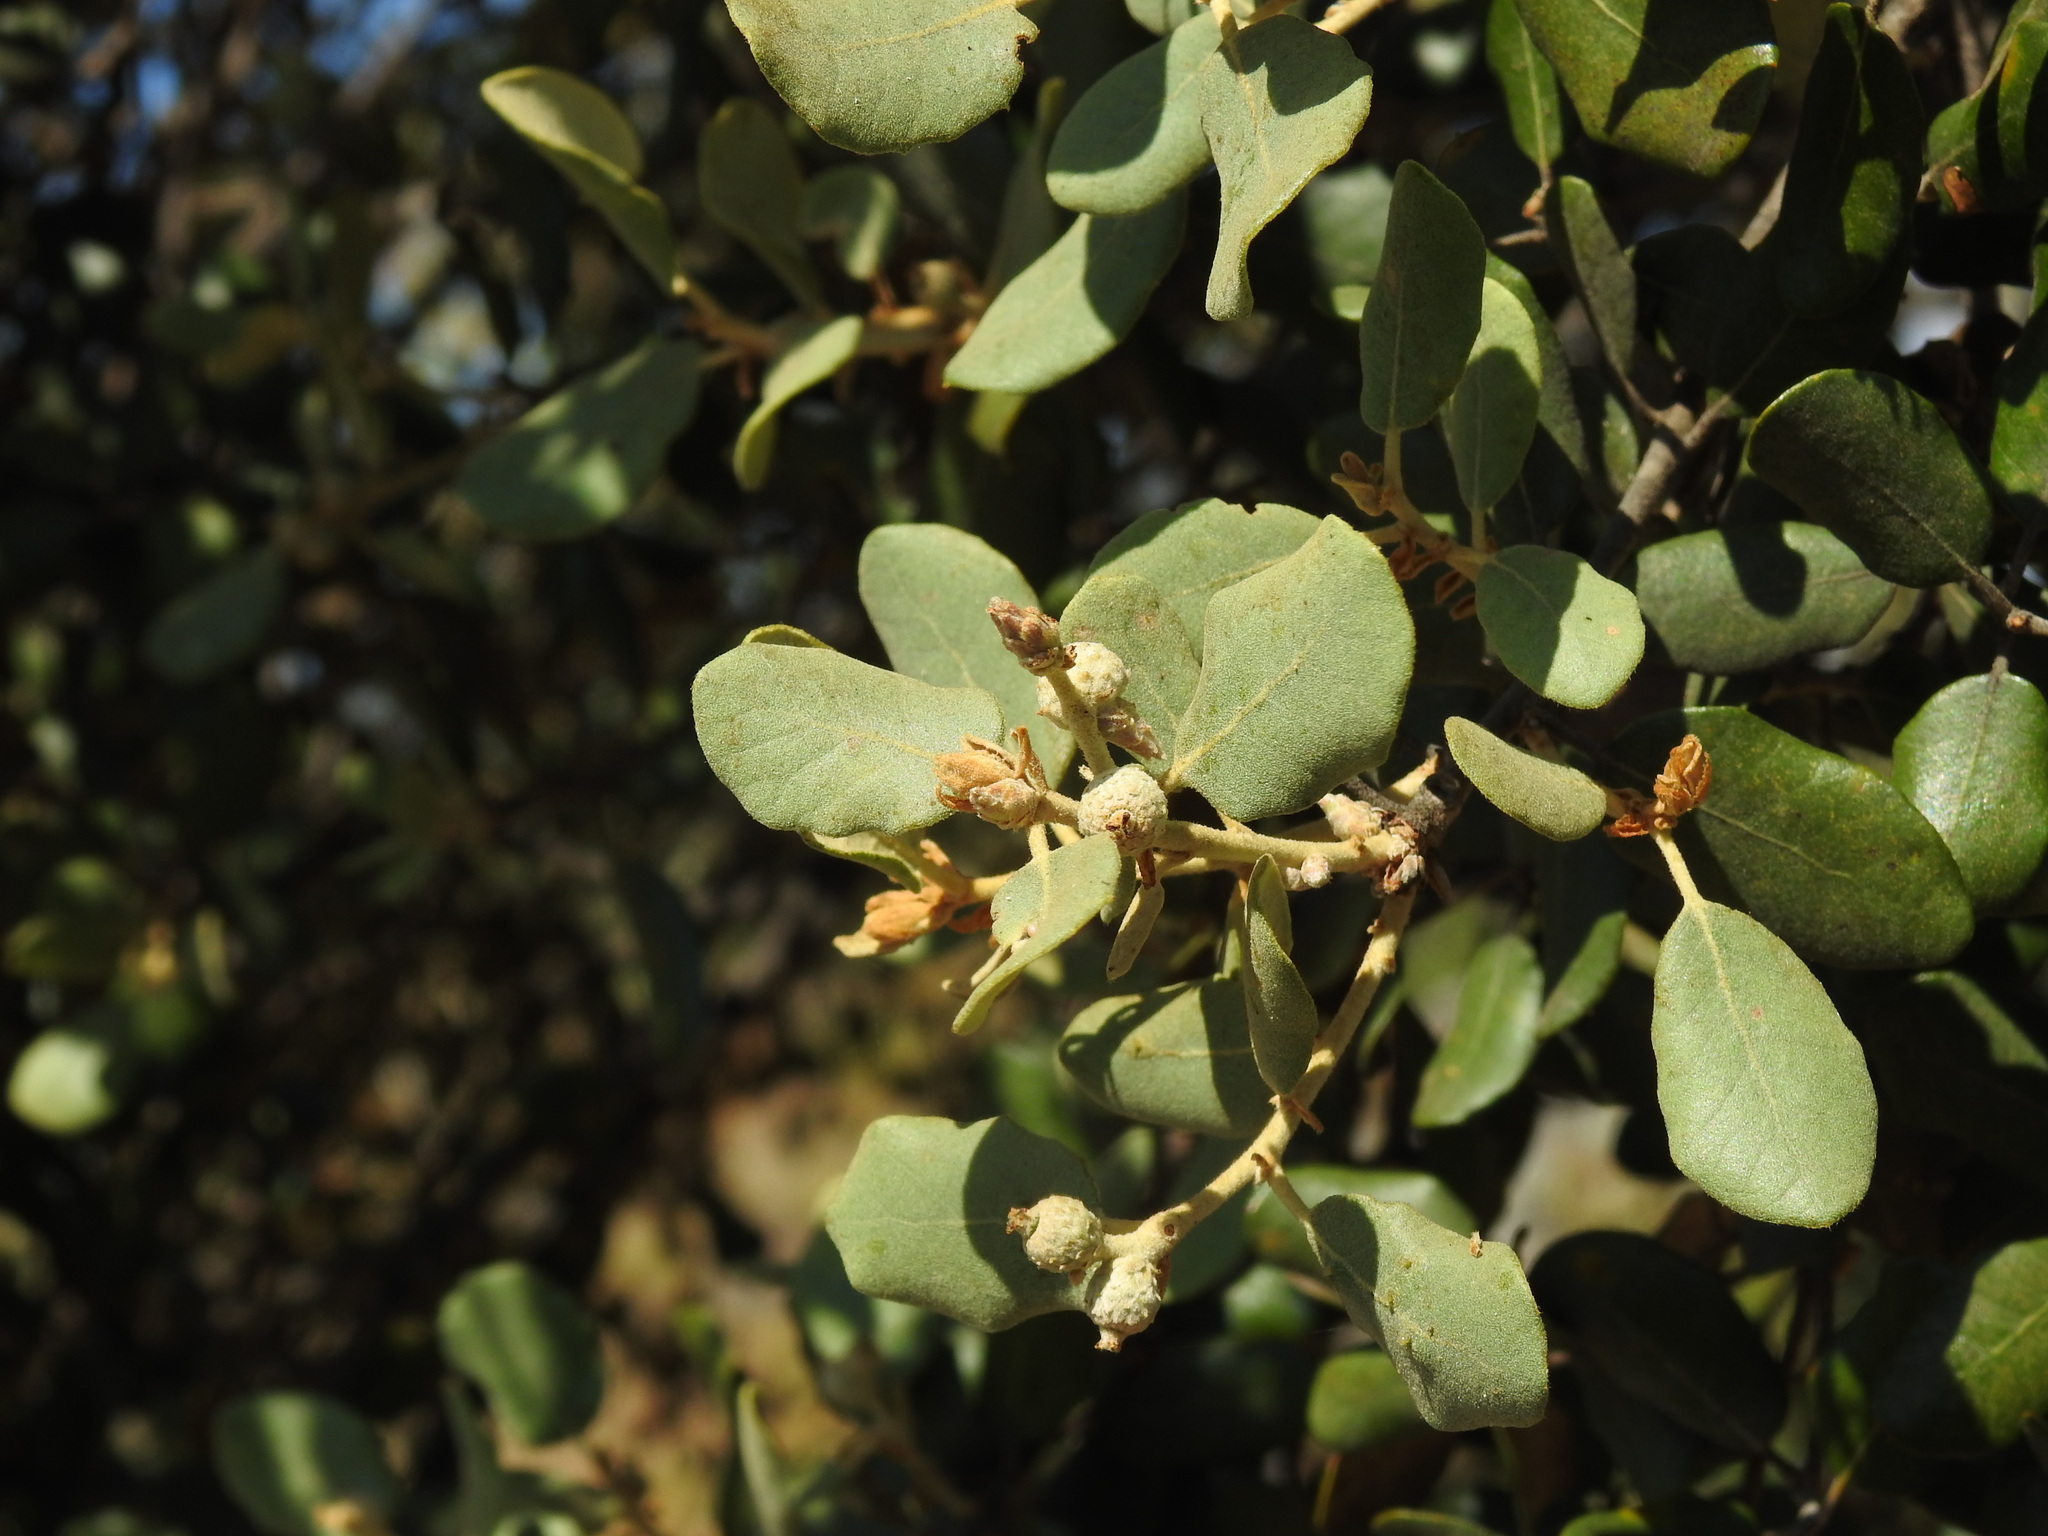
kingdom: Plantae
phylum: Tracheophyta
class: Magnoliopsida
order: Fagales
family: Fagaceae
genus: Quercus
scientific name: Quercus rotundifolia
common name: Holm oak
